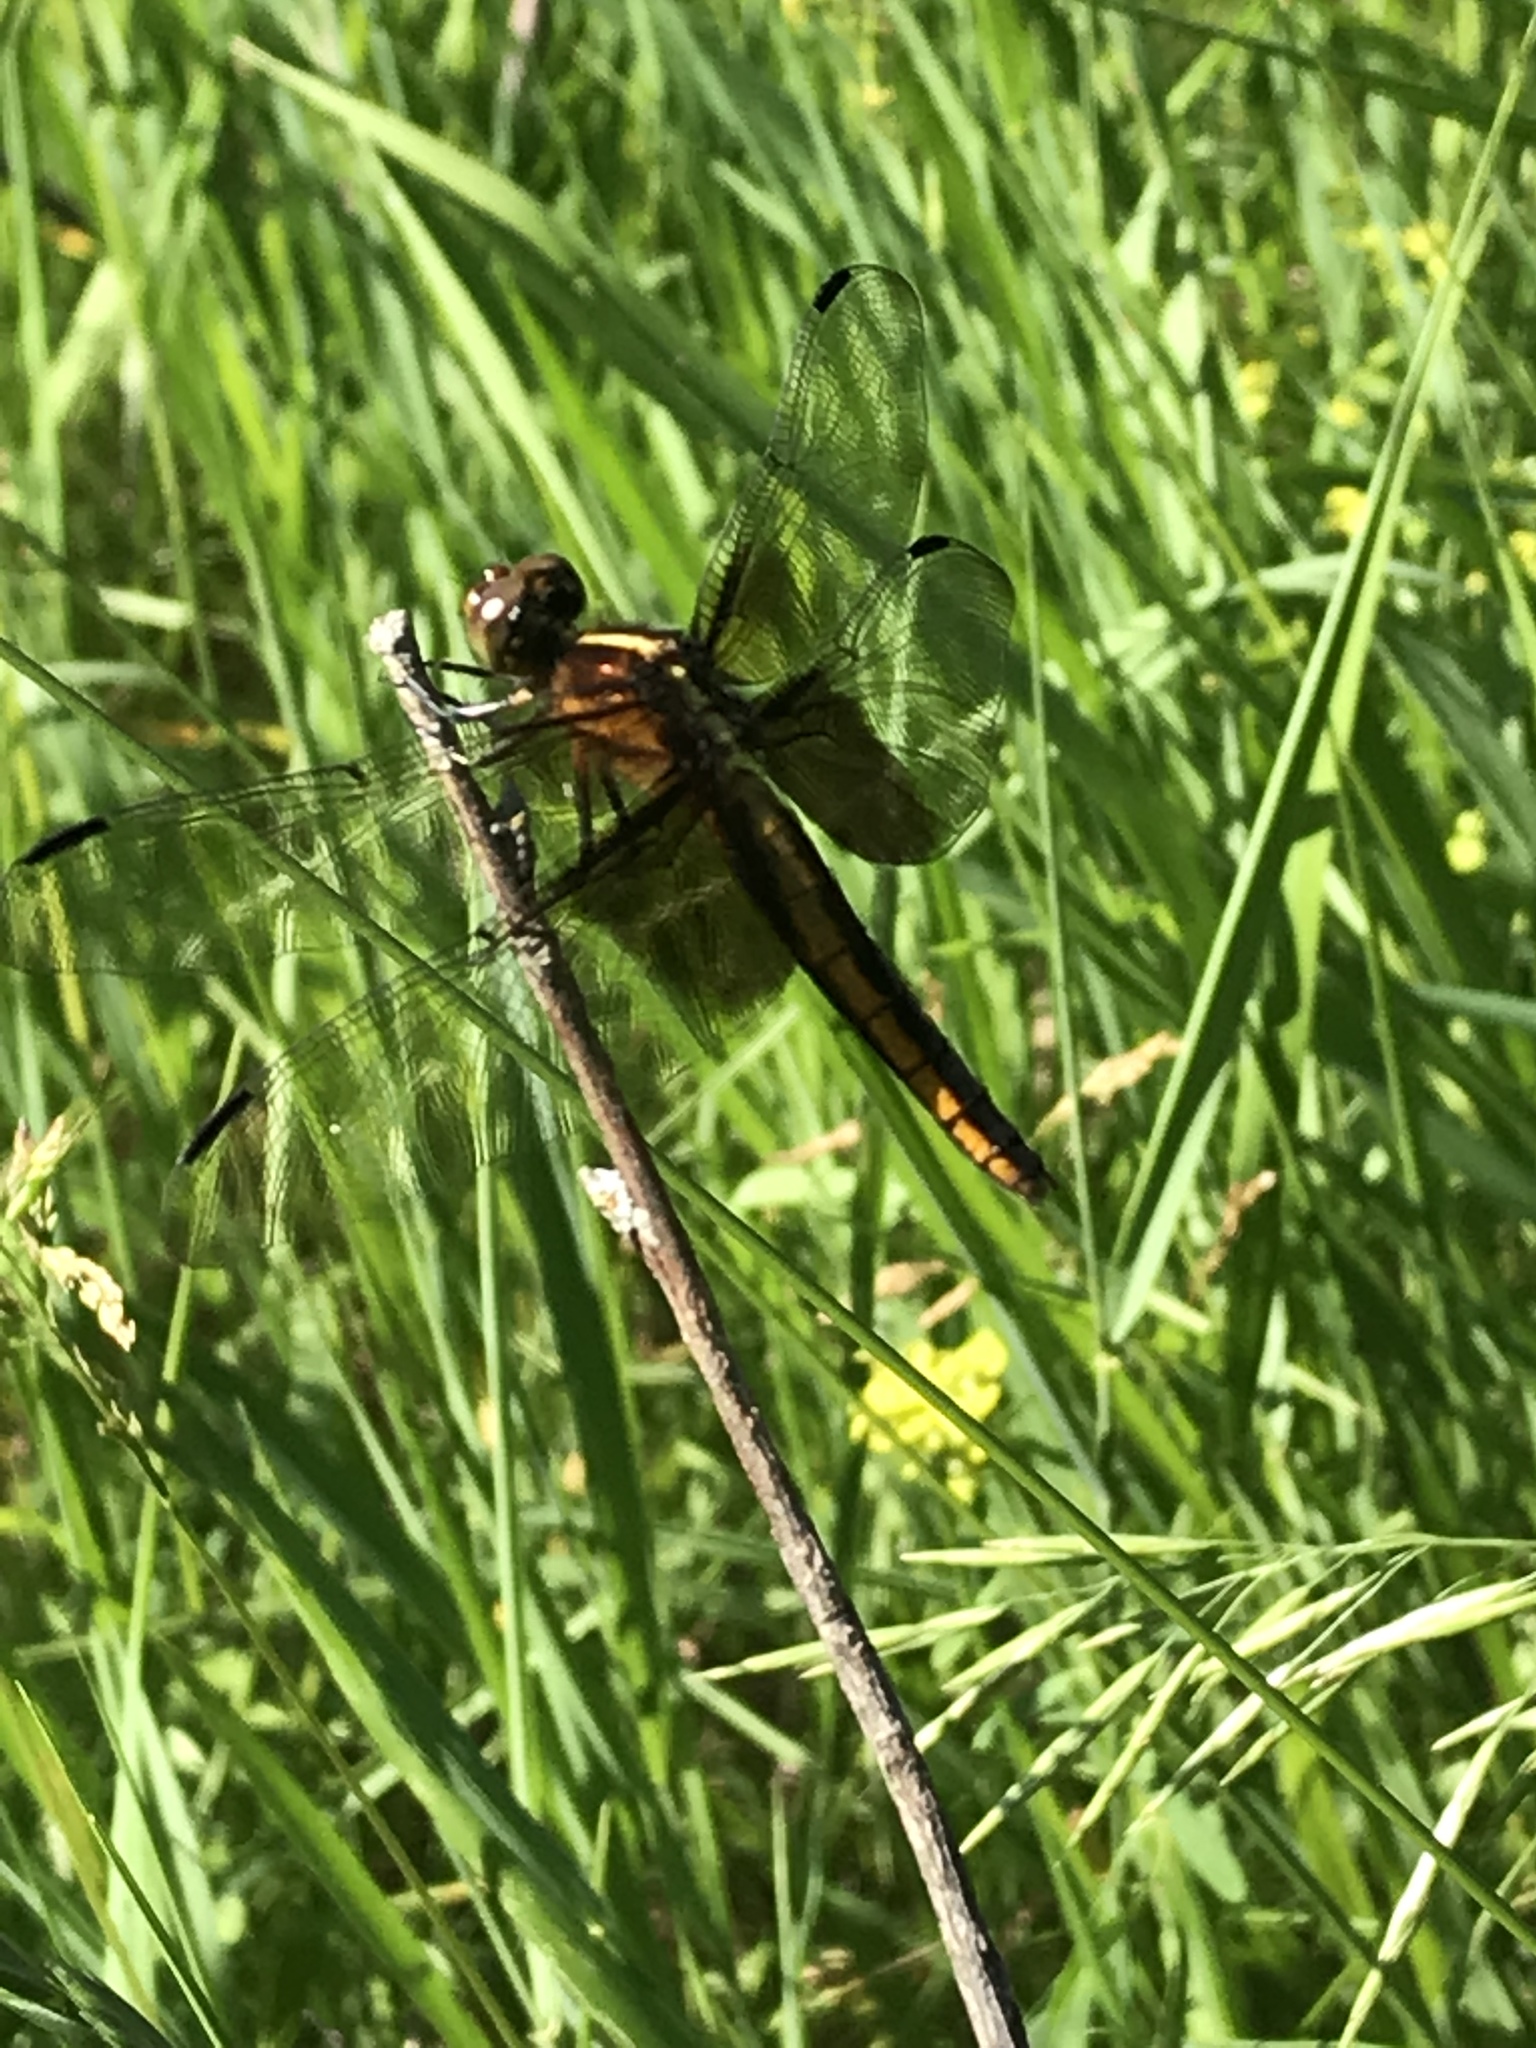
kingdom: Animalia
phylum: Arthropoda
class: Insecta
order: Odonata
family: Libellulidae
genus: Libellula
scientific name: Libellula luctuosa
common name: Widow skimmer
